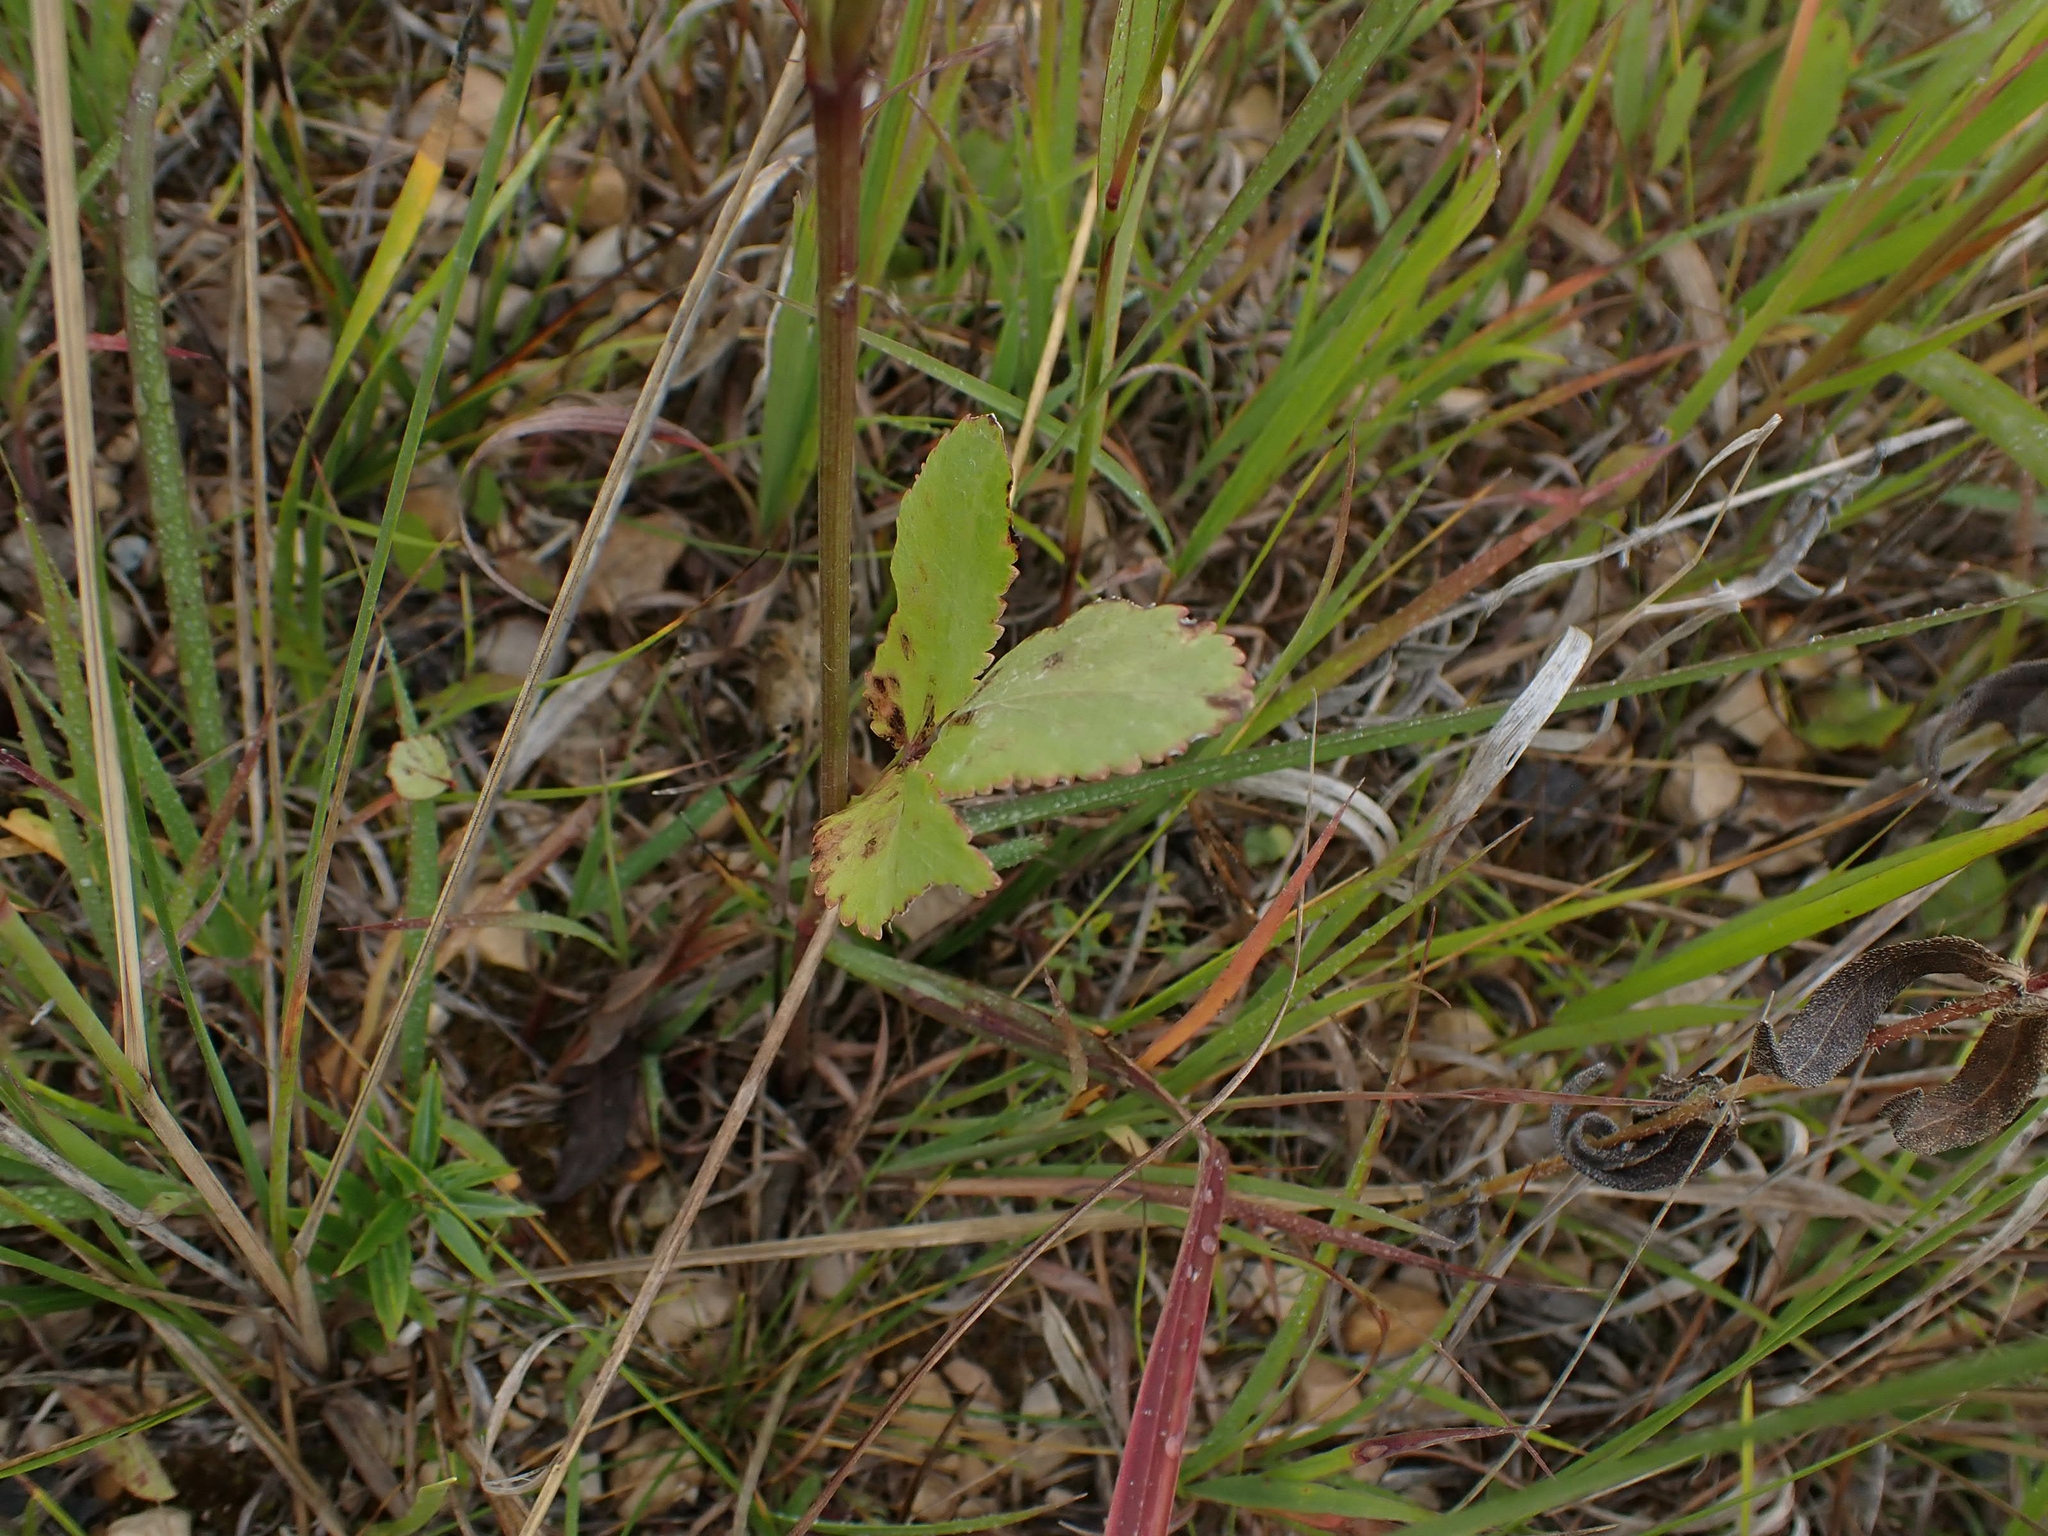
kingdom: Plantae
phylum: Tracheophyta
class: Magnoliopsida
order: Apiales
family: Apiaceae
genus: Zizia
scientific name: Zizia aptera
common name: Heart-leaved alexanders
